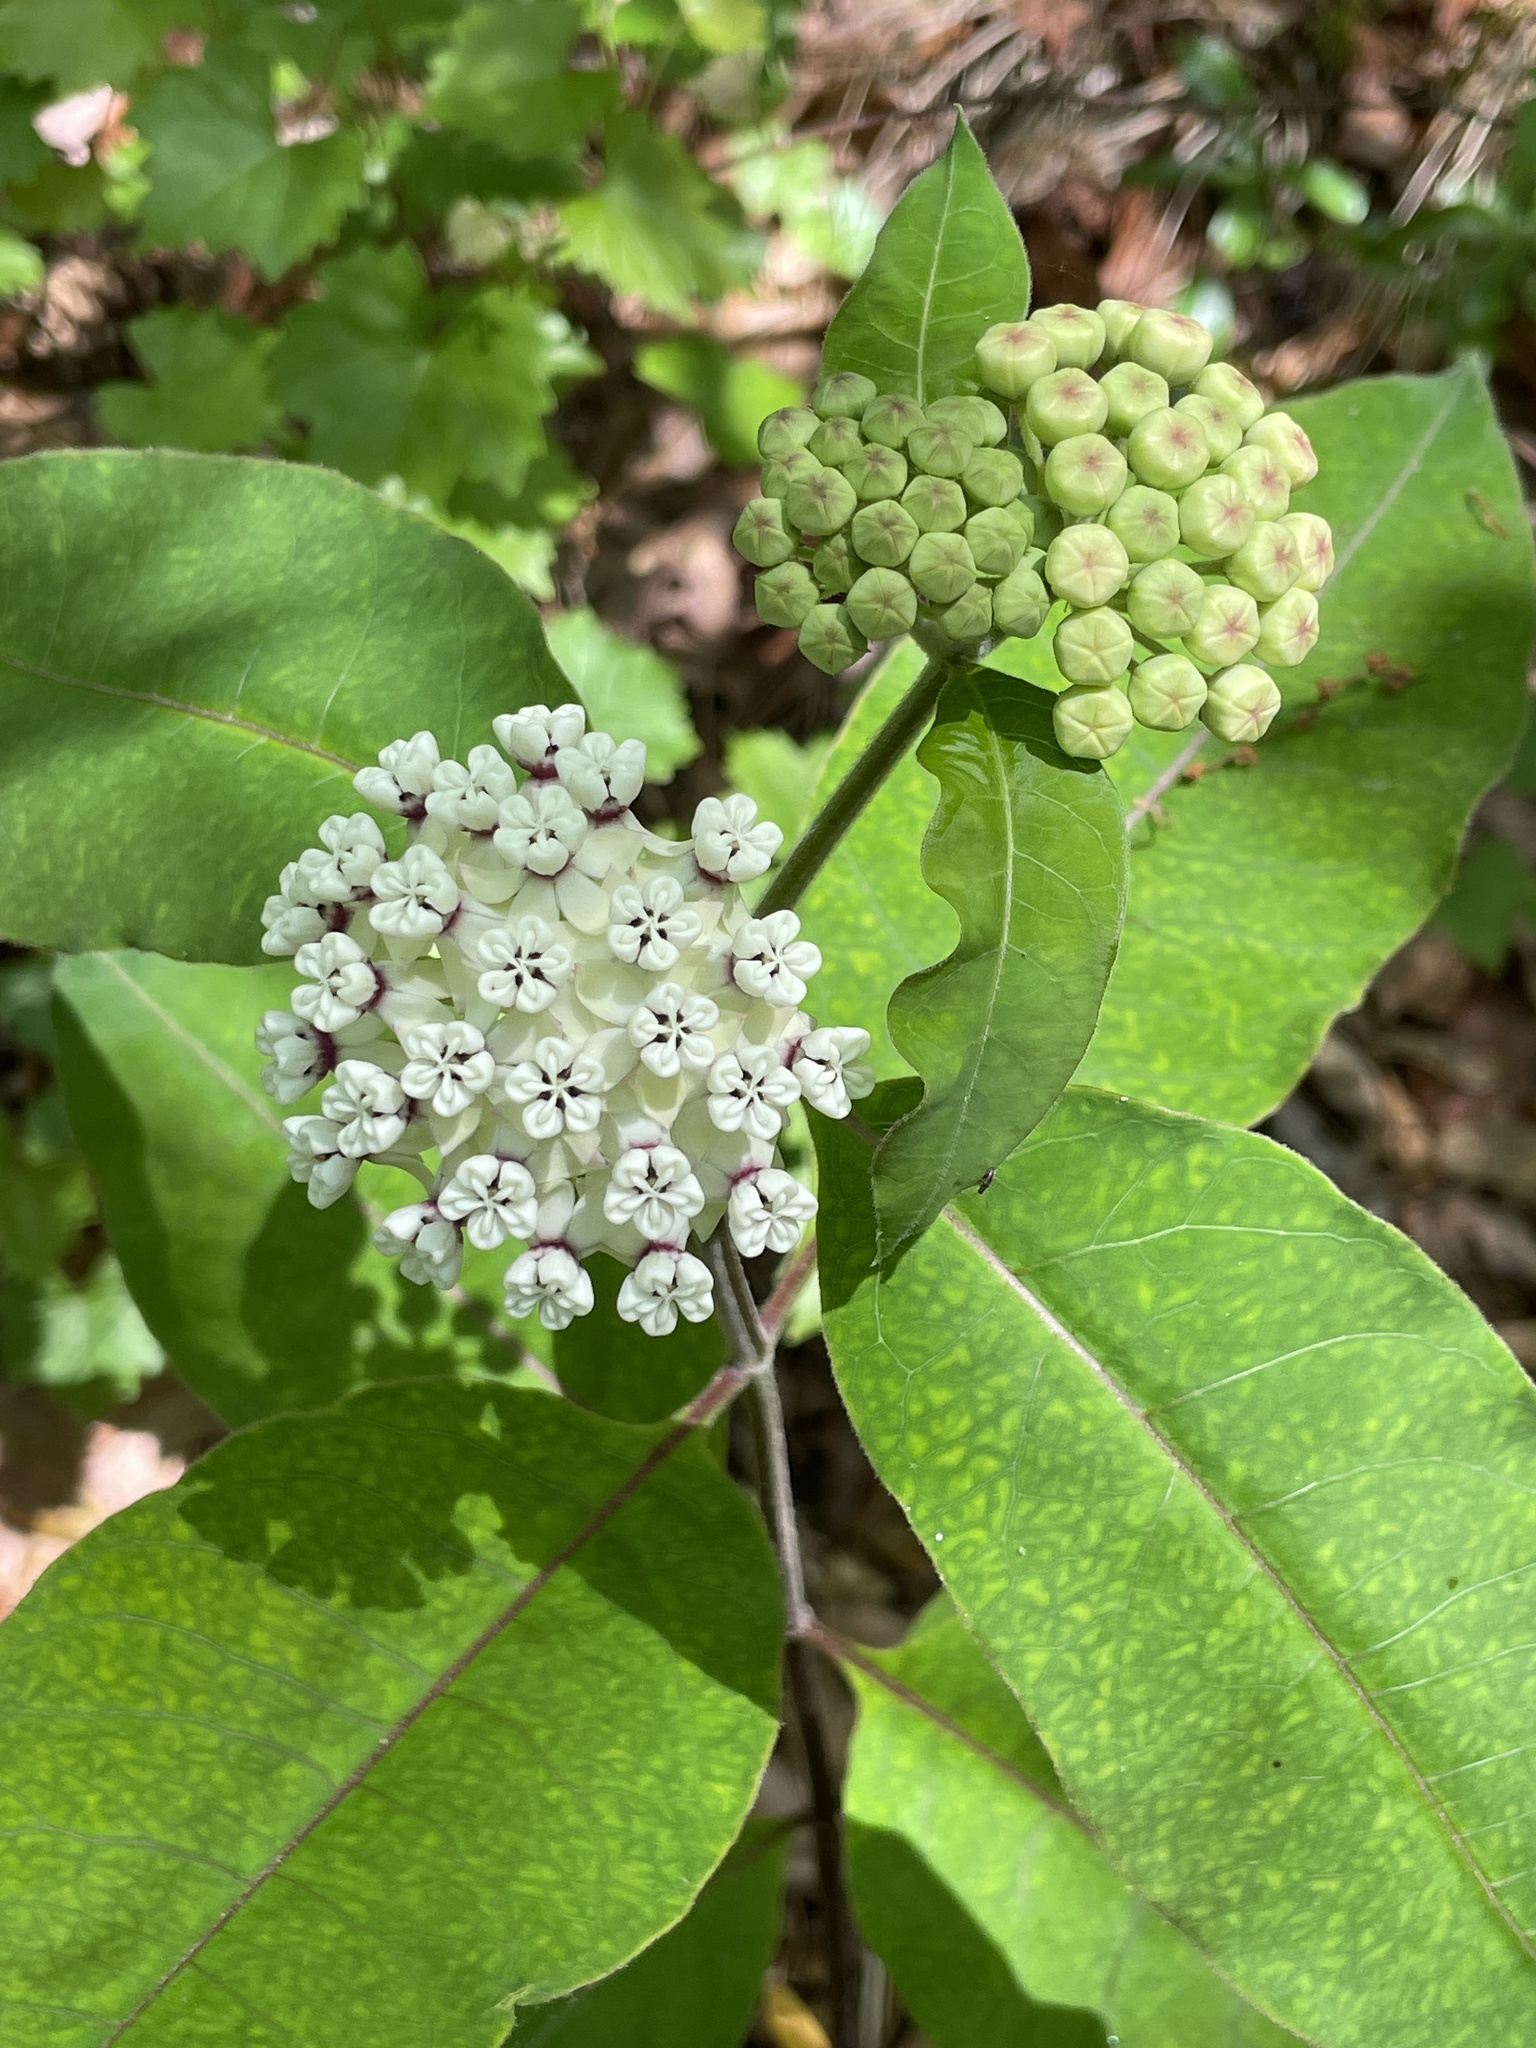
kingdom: Plantae
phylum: Tracheophyta
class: Magnoliopsida
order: Gentianales
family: Apocynaceae
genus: Asclepias
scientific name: Asclepias variegata
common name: Variegated milkweed
